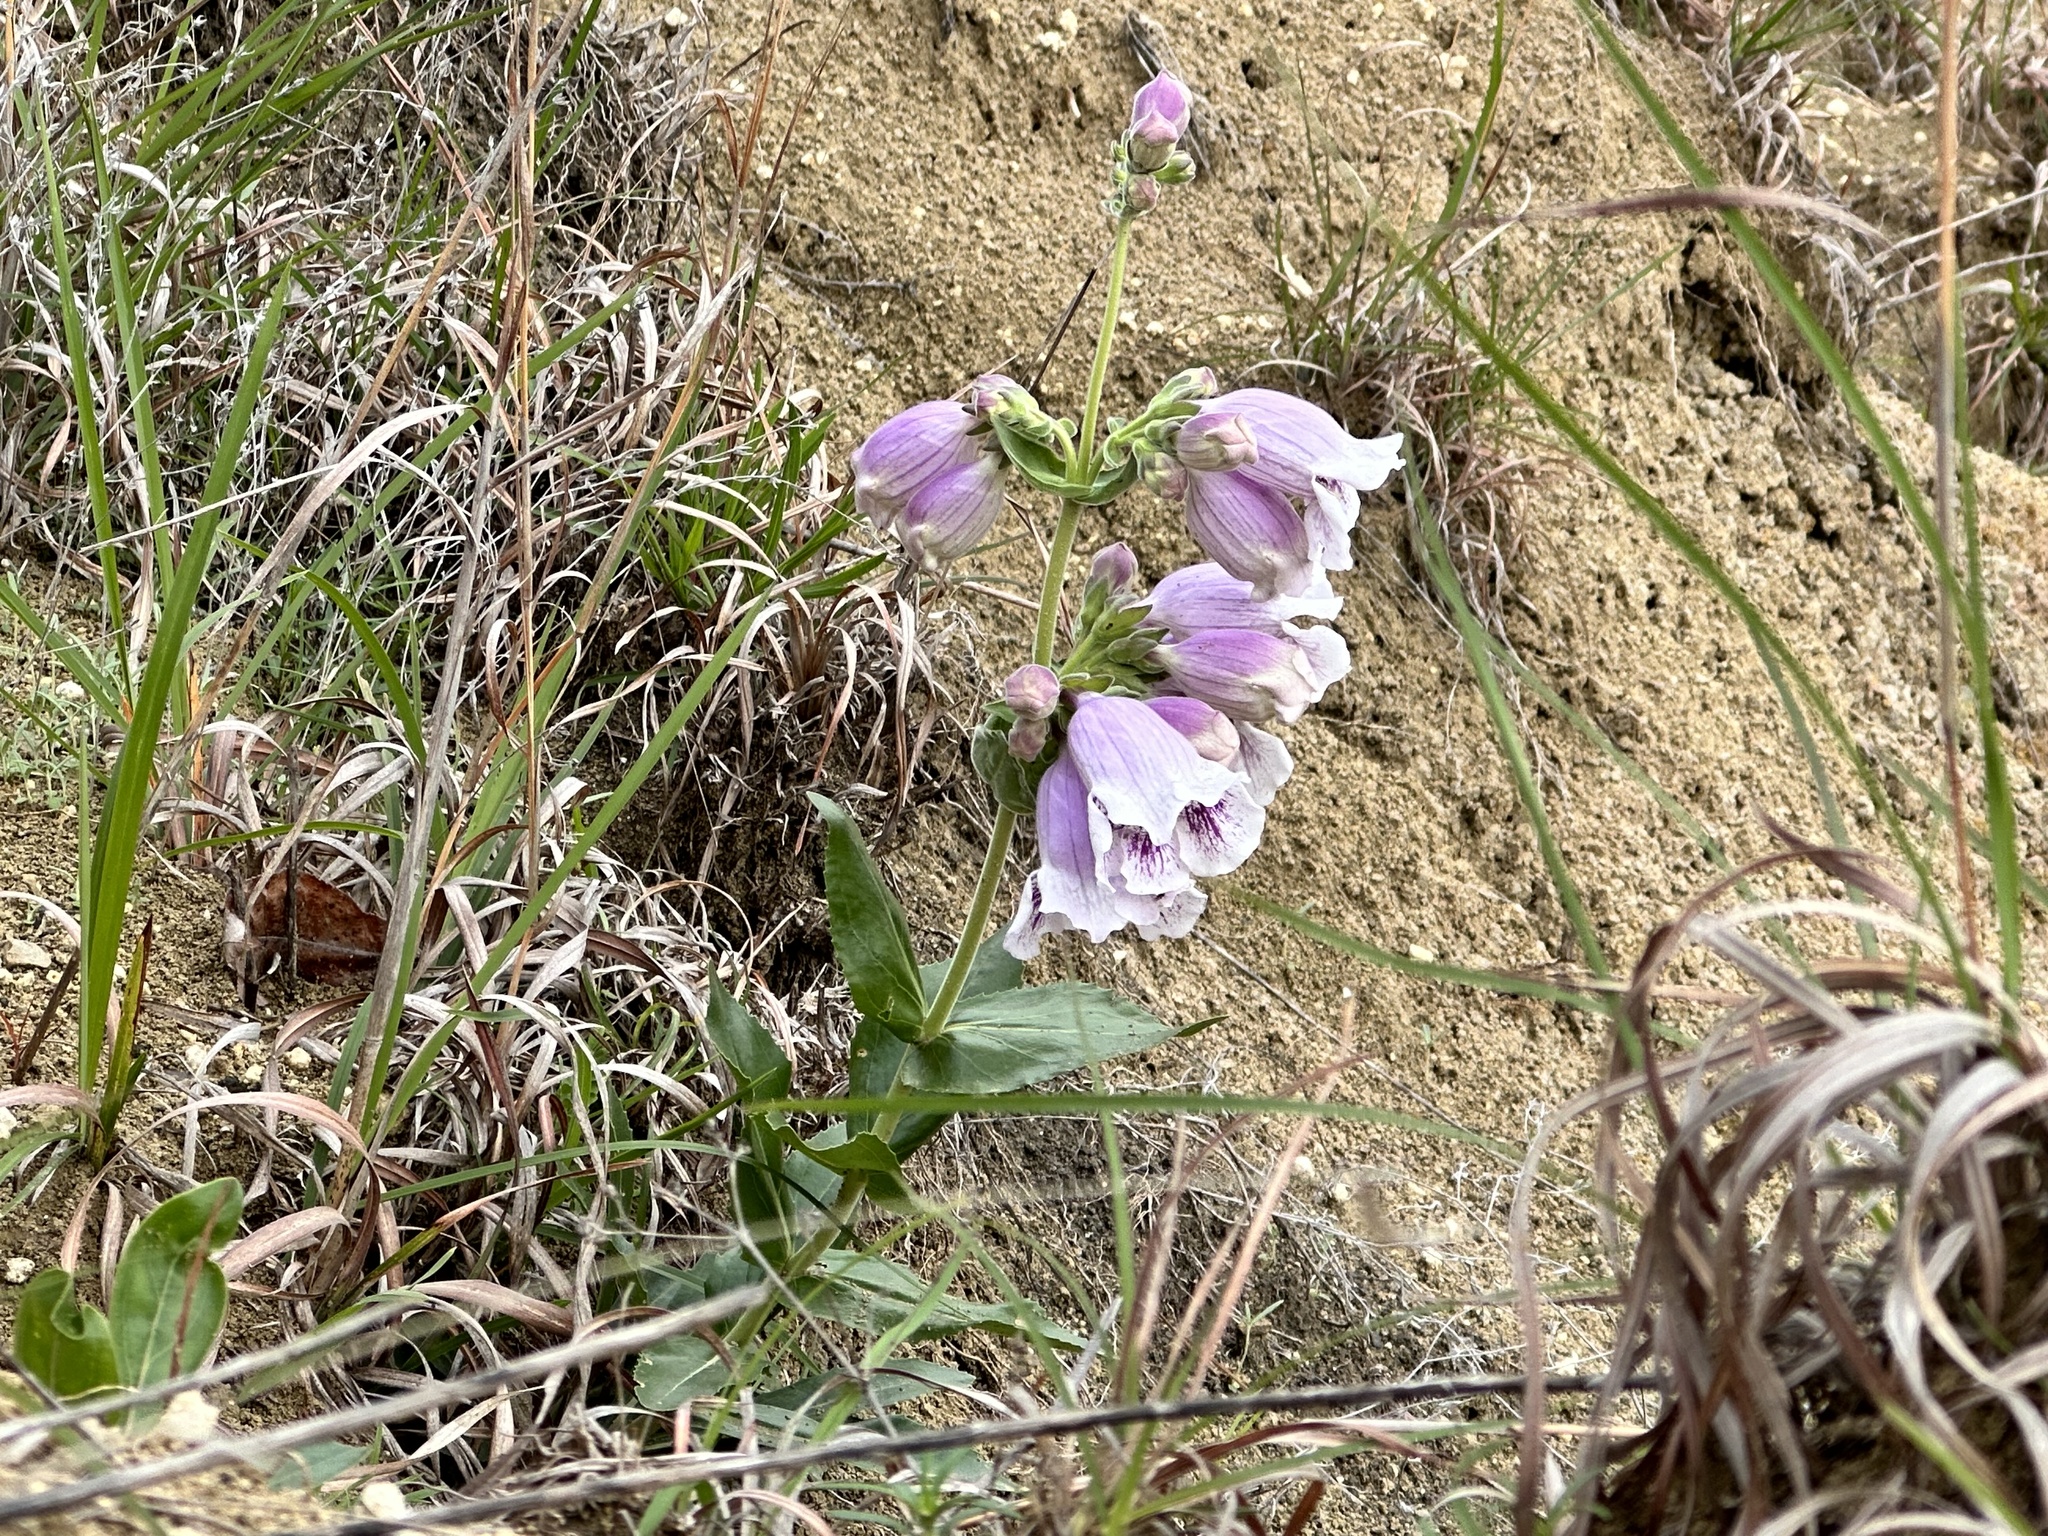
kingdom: Plantae
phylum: Tracheophyta
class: Magnoliopsida
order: Lamiales
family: Plantaginaceae
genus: Penstemon
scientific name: Penstemon cobaea
